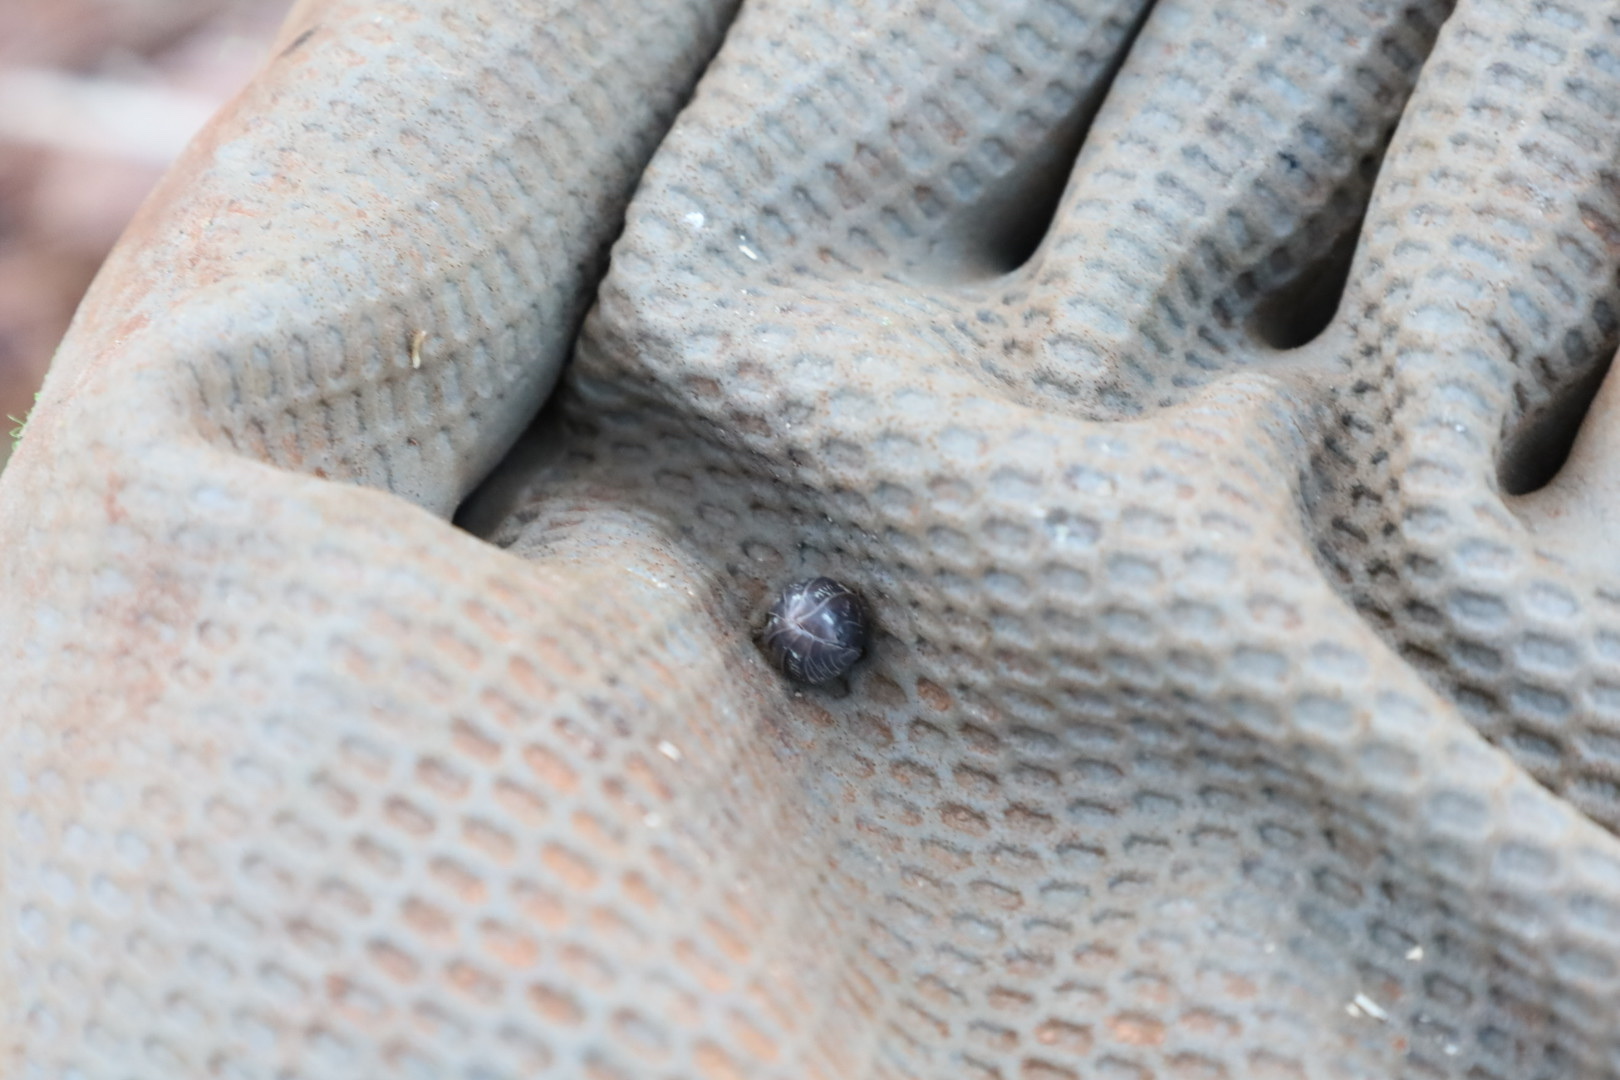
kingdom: Animalia
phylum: Arthropoda
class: Malacostraca
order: Isopoda
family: Armadillidiidae
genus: Armadillidium
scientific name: Armadillidium vulgare
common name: Common pill woodlouse
